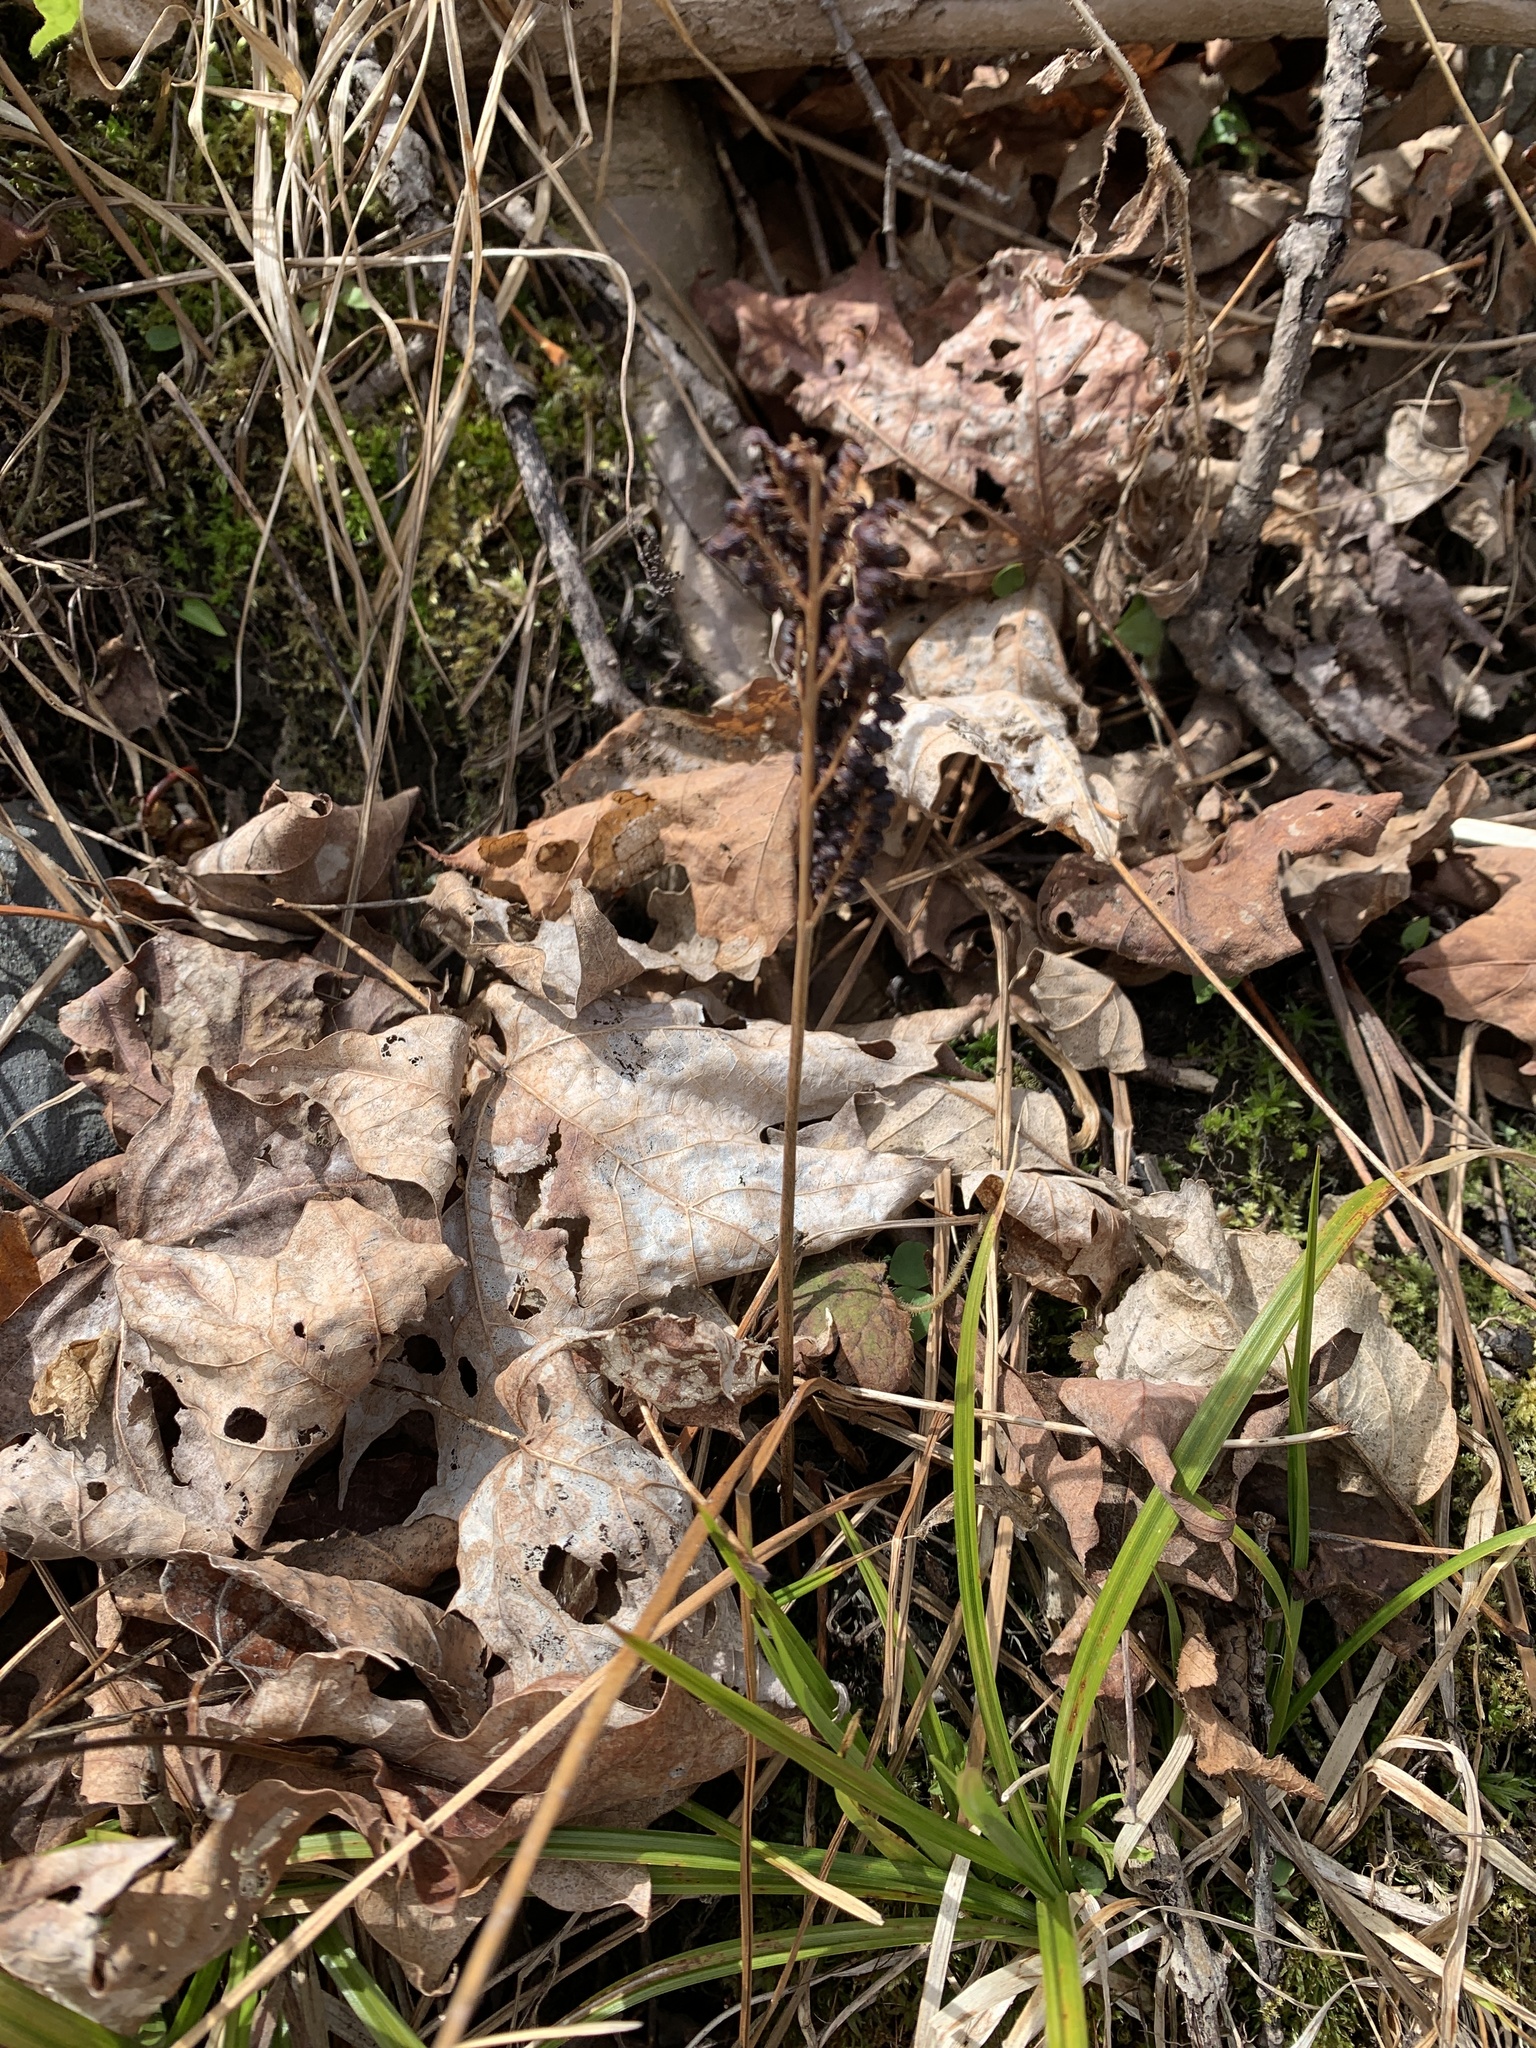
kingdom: Plantae
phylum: Tracheophyta
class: Polypodiopsida
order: Polypodiales
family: Onocleaceae
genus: Onoclea
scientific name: Onoclea sensibilis
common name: Sensitive fern
